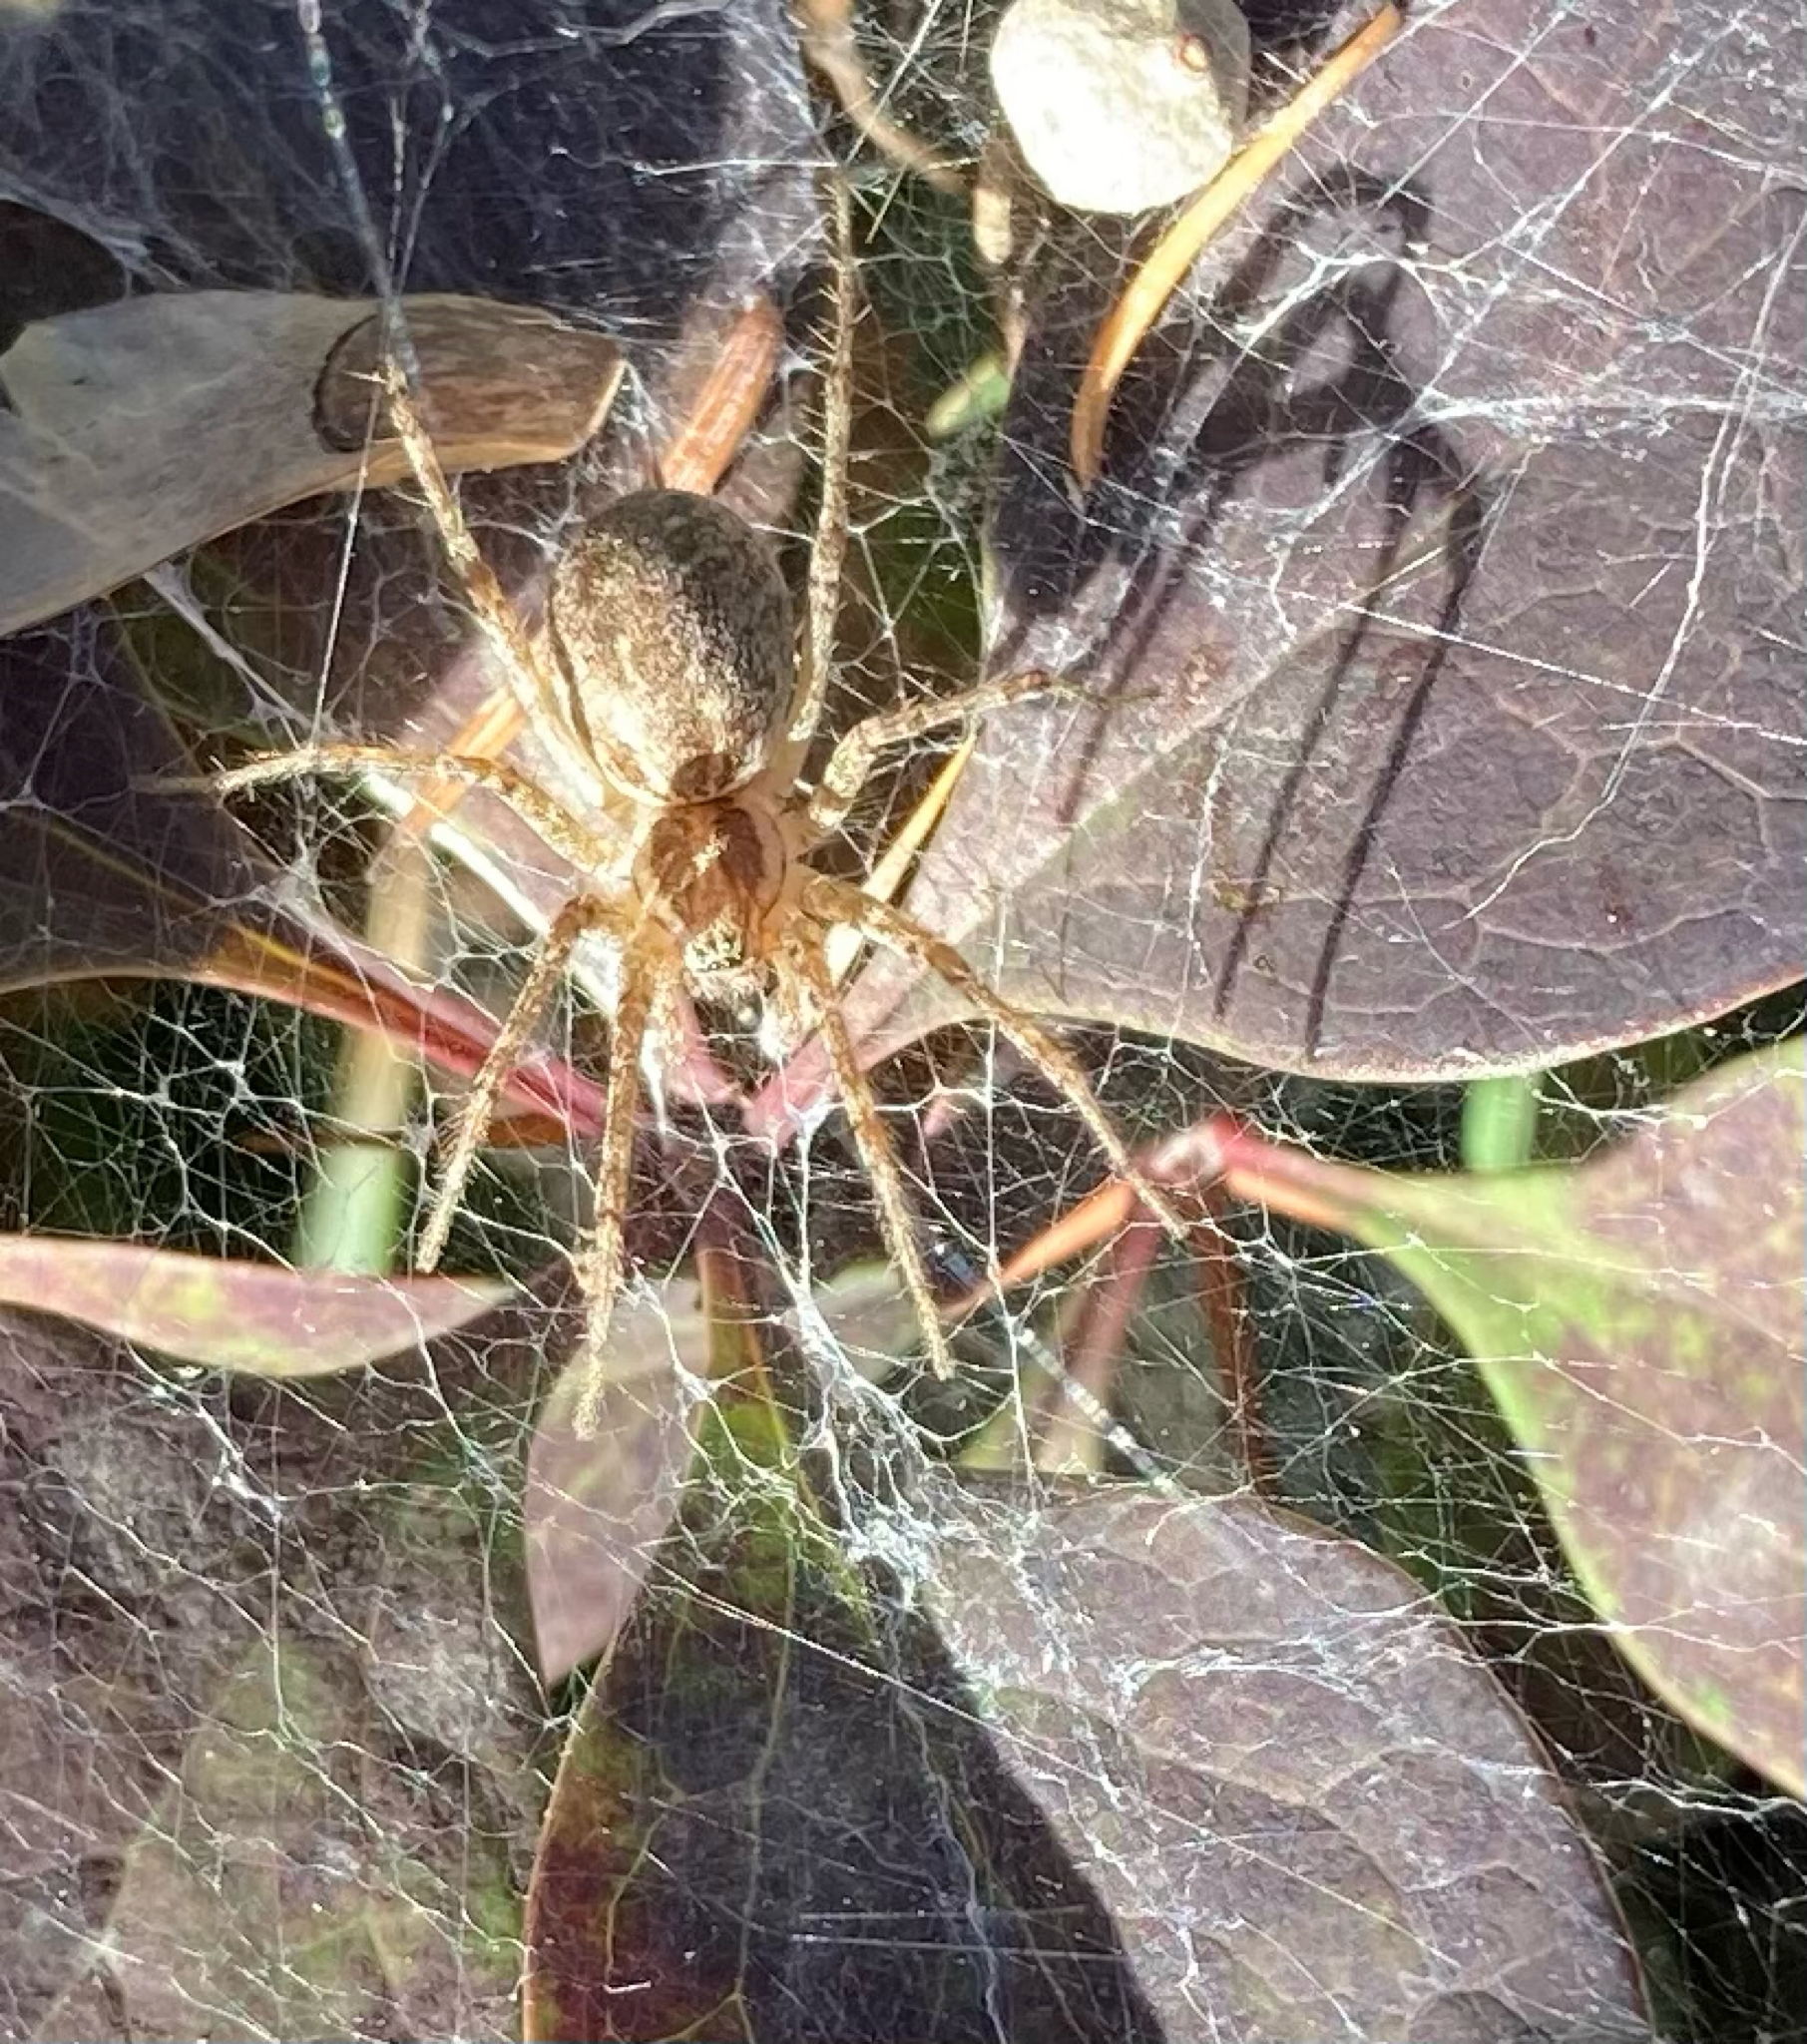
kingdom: Animalia
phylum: Arthropoda
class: Arachnida
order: Araneae
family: Agelenidae
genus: Allagelena
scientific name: Allagelena gracilens
